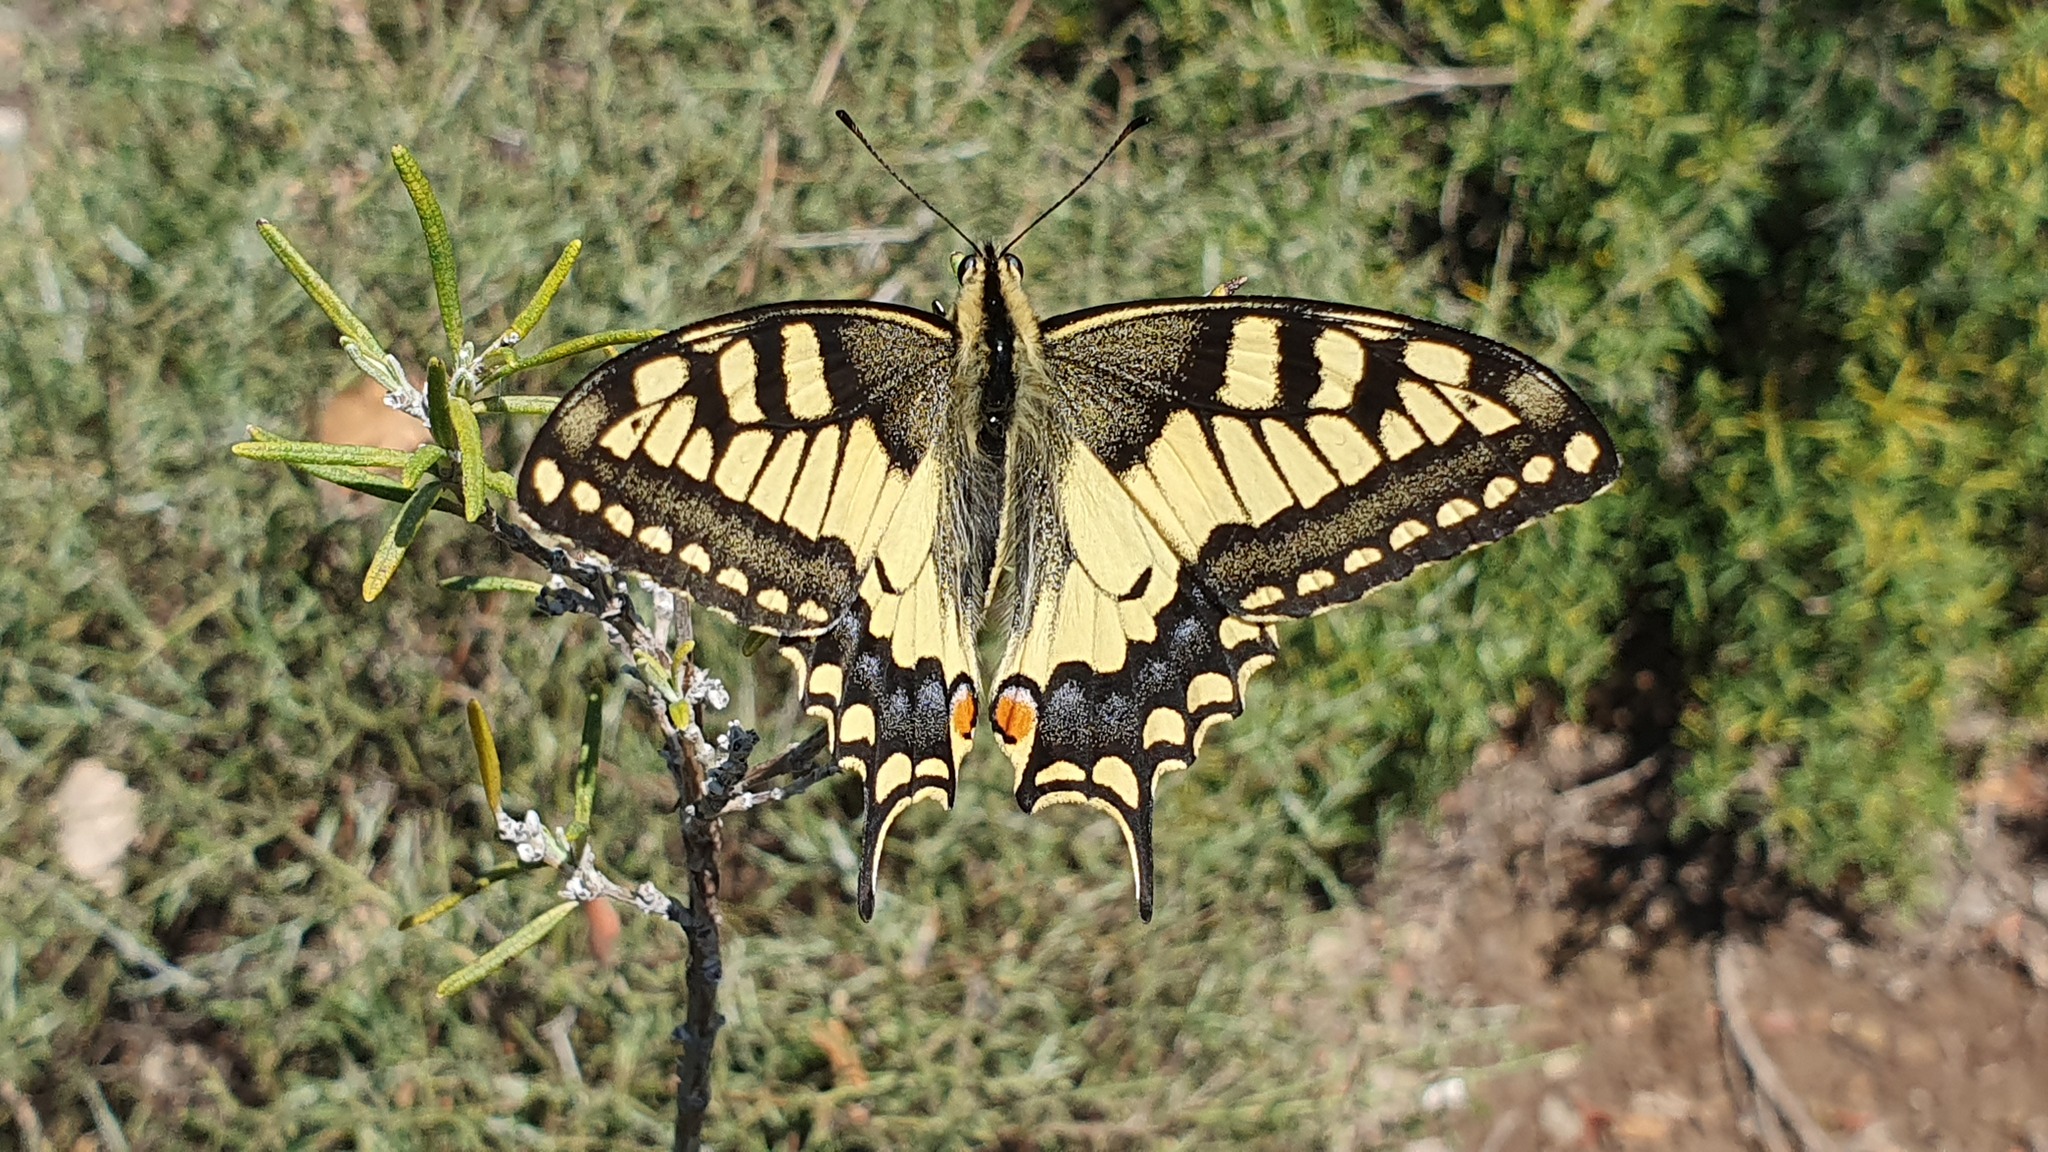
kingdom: Animalia
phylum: Arthropoda
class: Insecta
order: Lepidoptera
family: Papilionidae
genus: Papilio
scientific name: Papilio machaon
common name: Swallowtail
